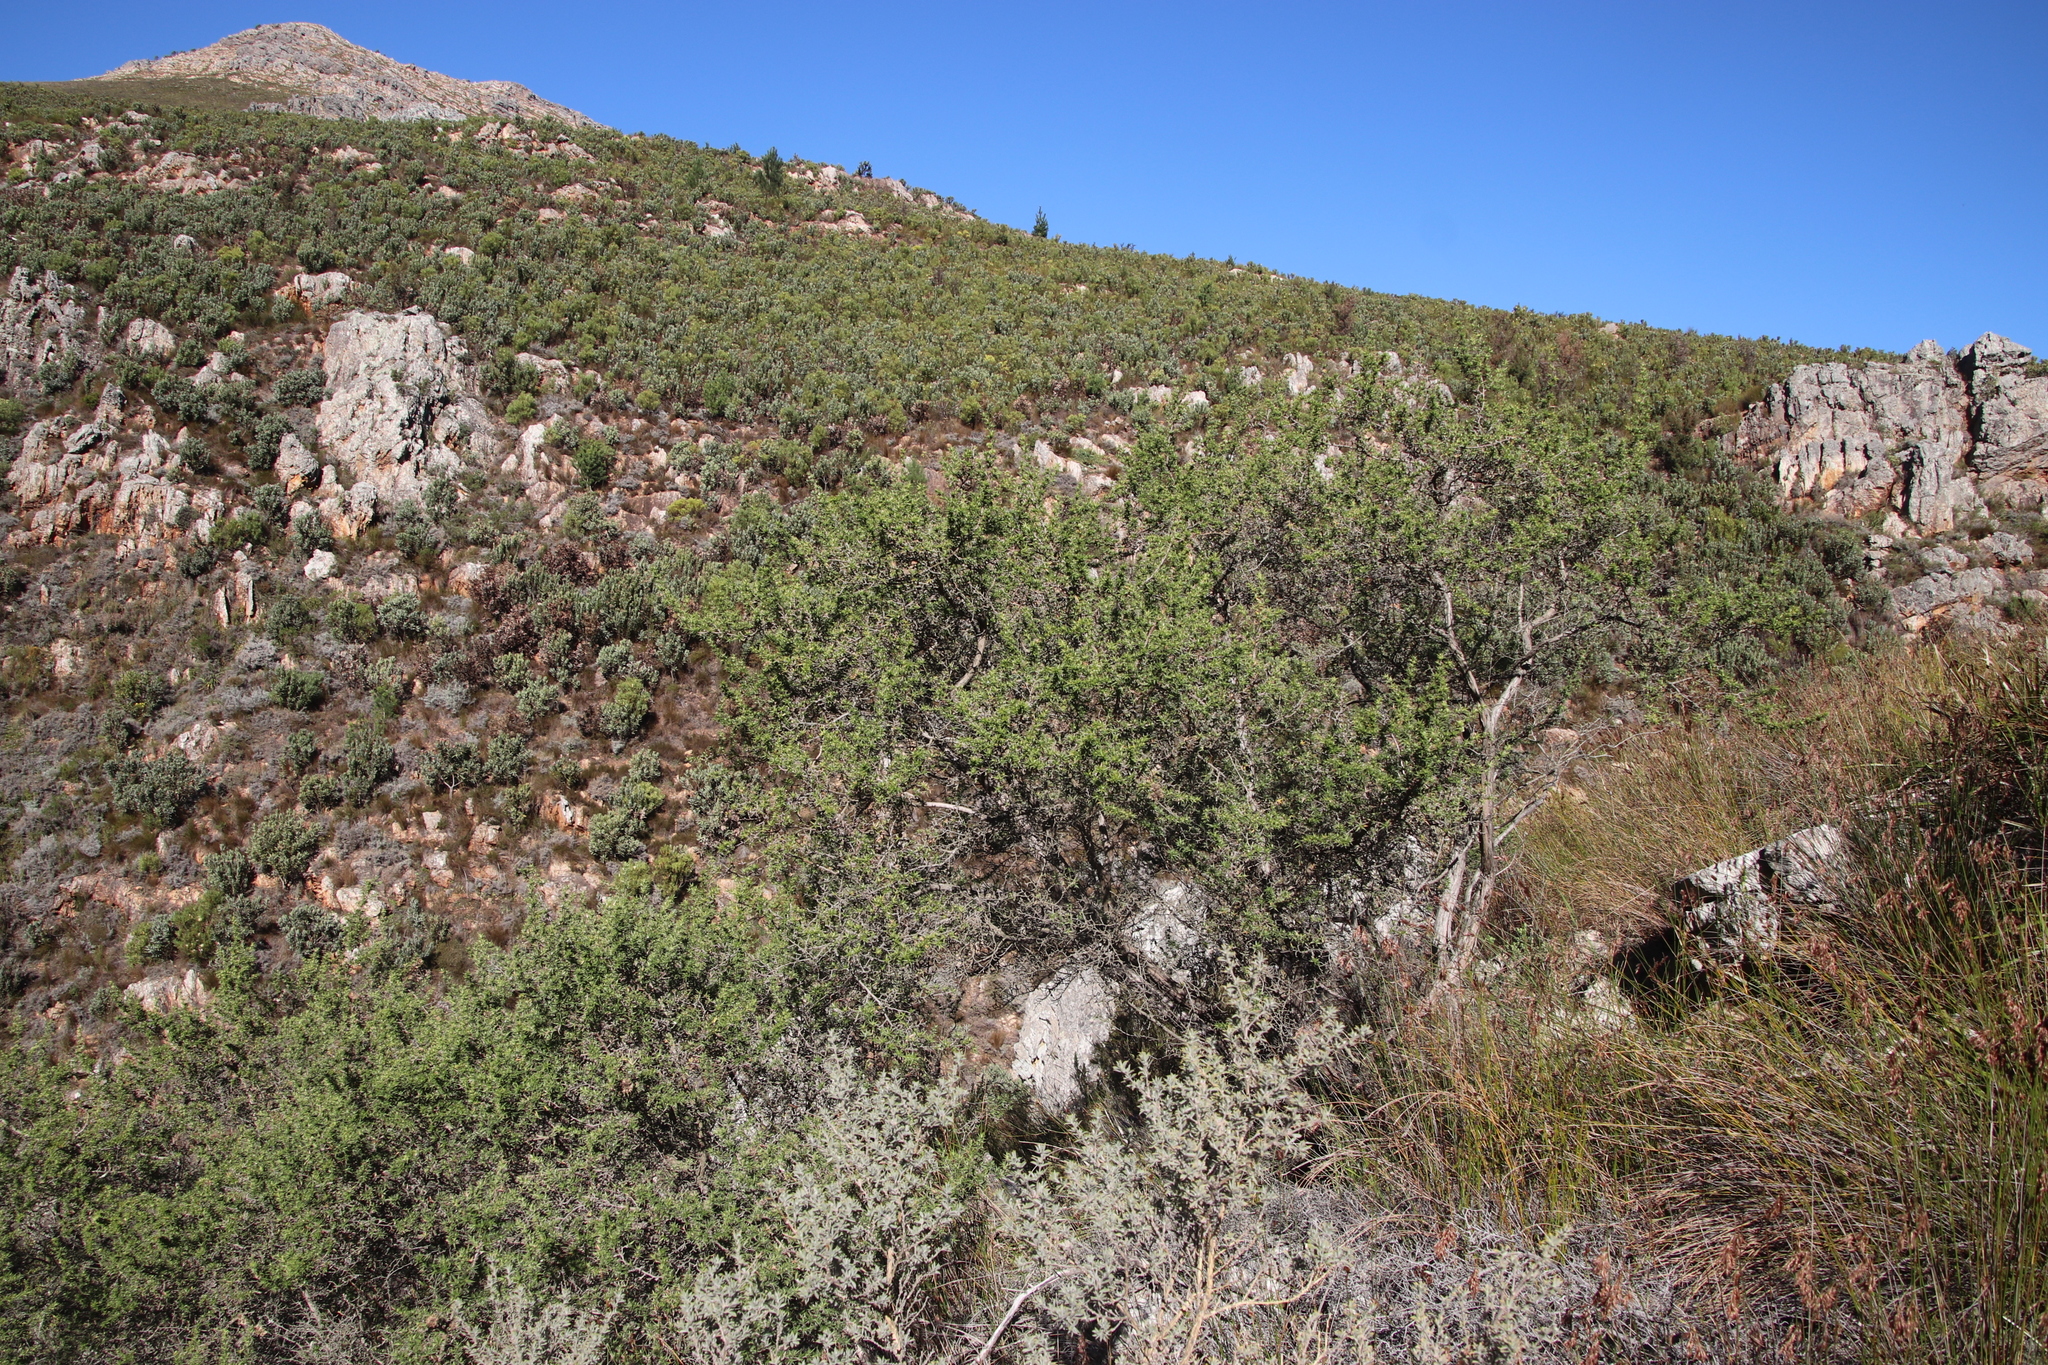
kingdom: Plantae
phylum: Tracheophyta
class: Magnoliopsida
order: Rosales
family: Rosaceae
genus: Cliffortia
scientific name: Cliffortia ruscifolia
